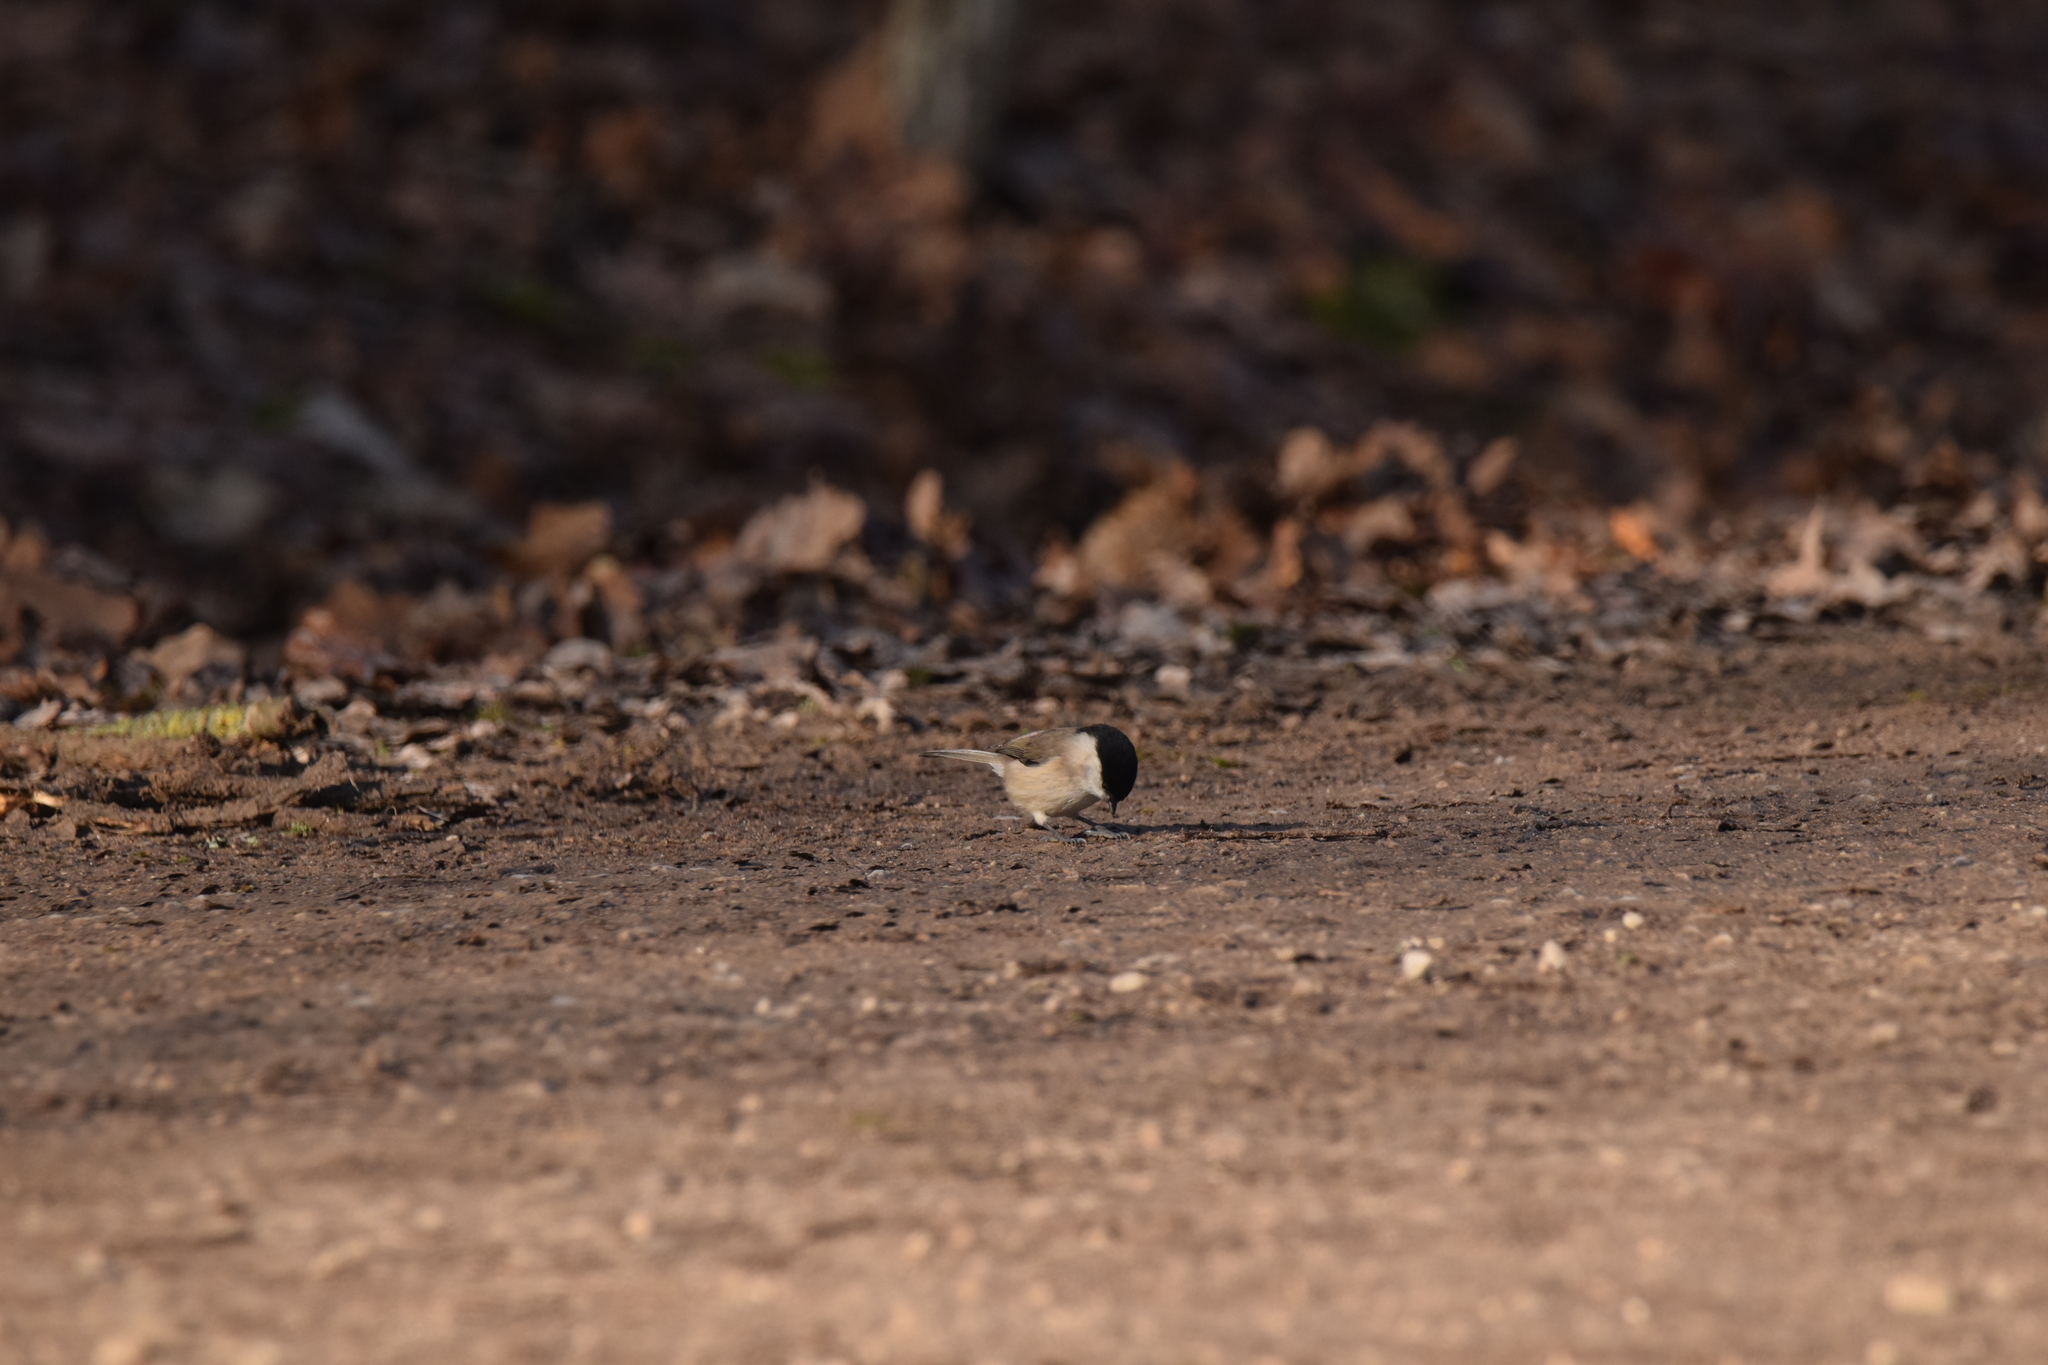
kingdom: Animalia
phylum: Chordata
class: Aves
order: Passeriformes
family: Paridae
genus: Poecile
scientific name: Poecile palustris
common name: Marsh tit
